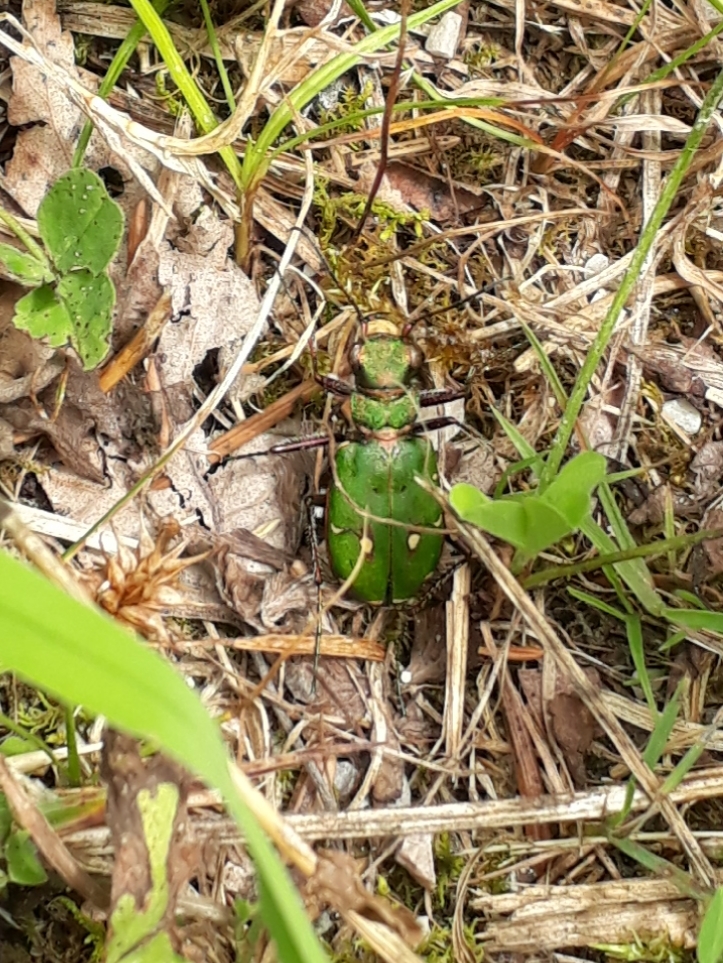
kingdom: Animalia
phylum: Arthropoda
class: Insecta
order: Coleoptera
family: Carabidae
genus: Cicindela
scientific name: Cicindela campestris
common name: Common tiger beetle
